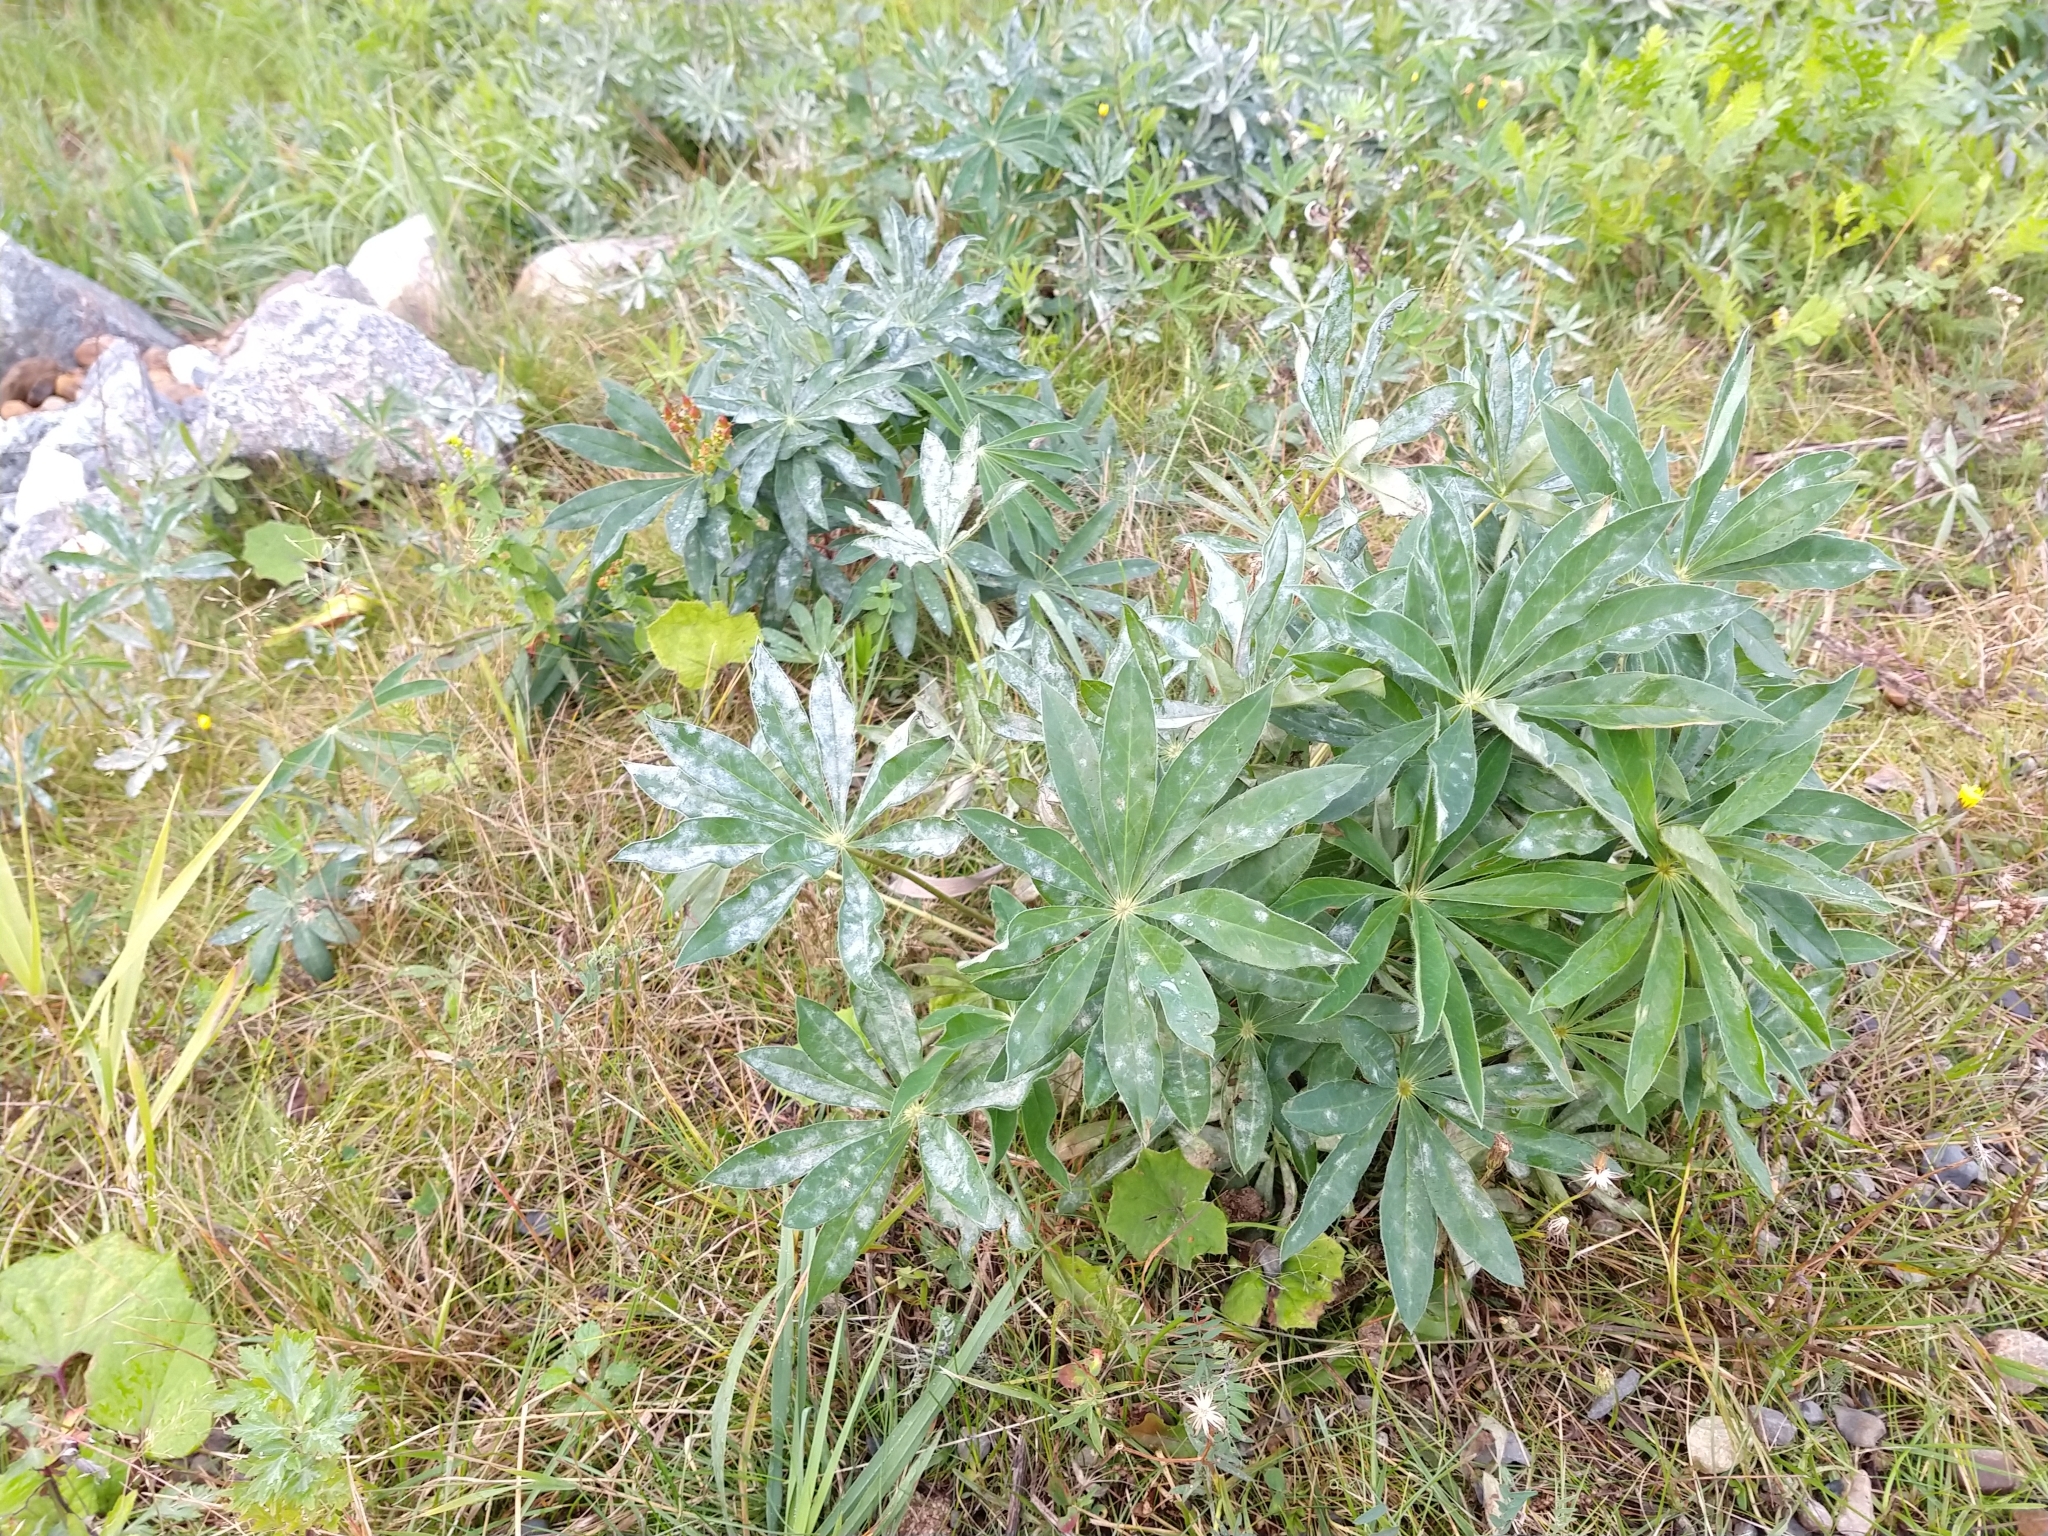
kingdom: Plantae
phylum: Tracheophyta
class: Magnoliopsida
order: Fabales
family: Fabaceae
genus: Lupinus
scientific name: Lupinus polyphyllus
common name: Garden lupin
